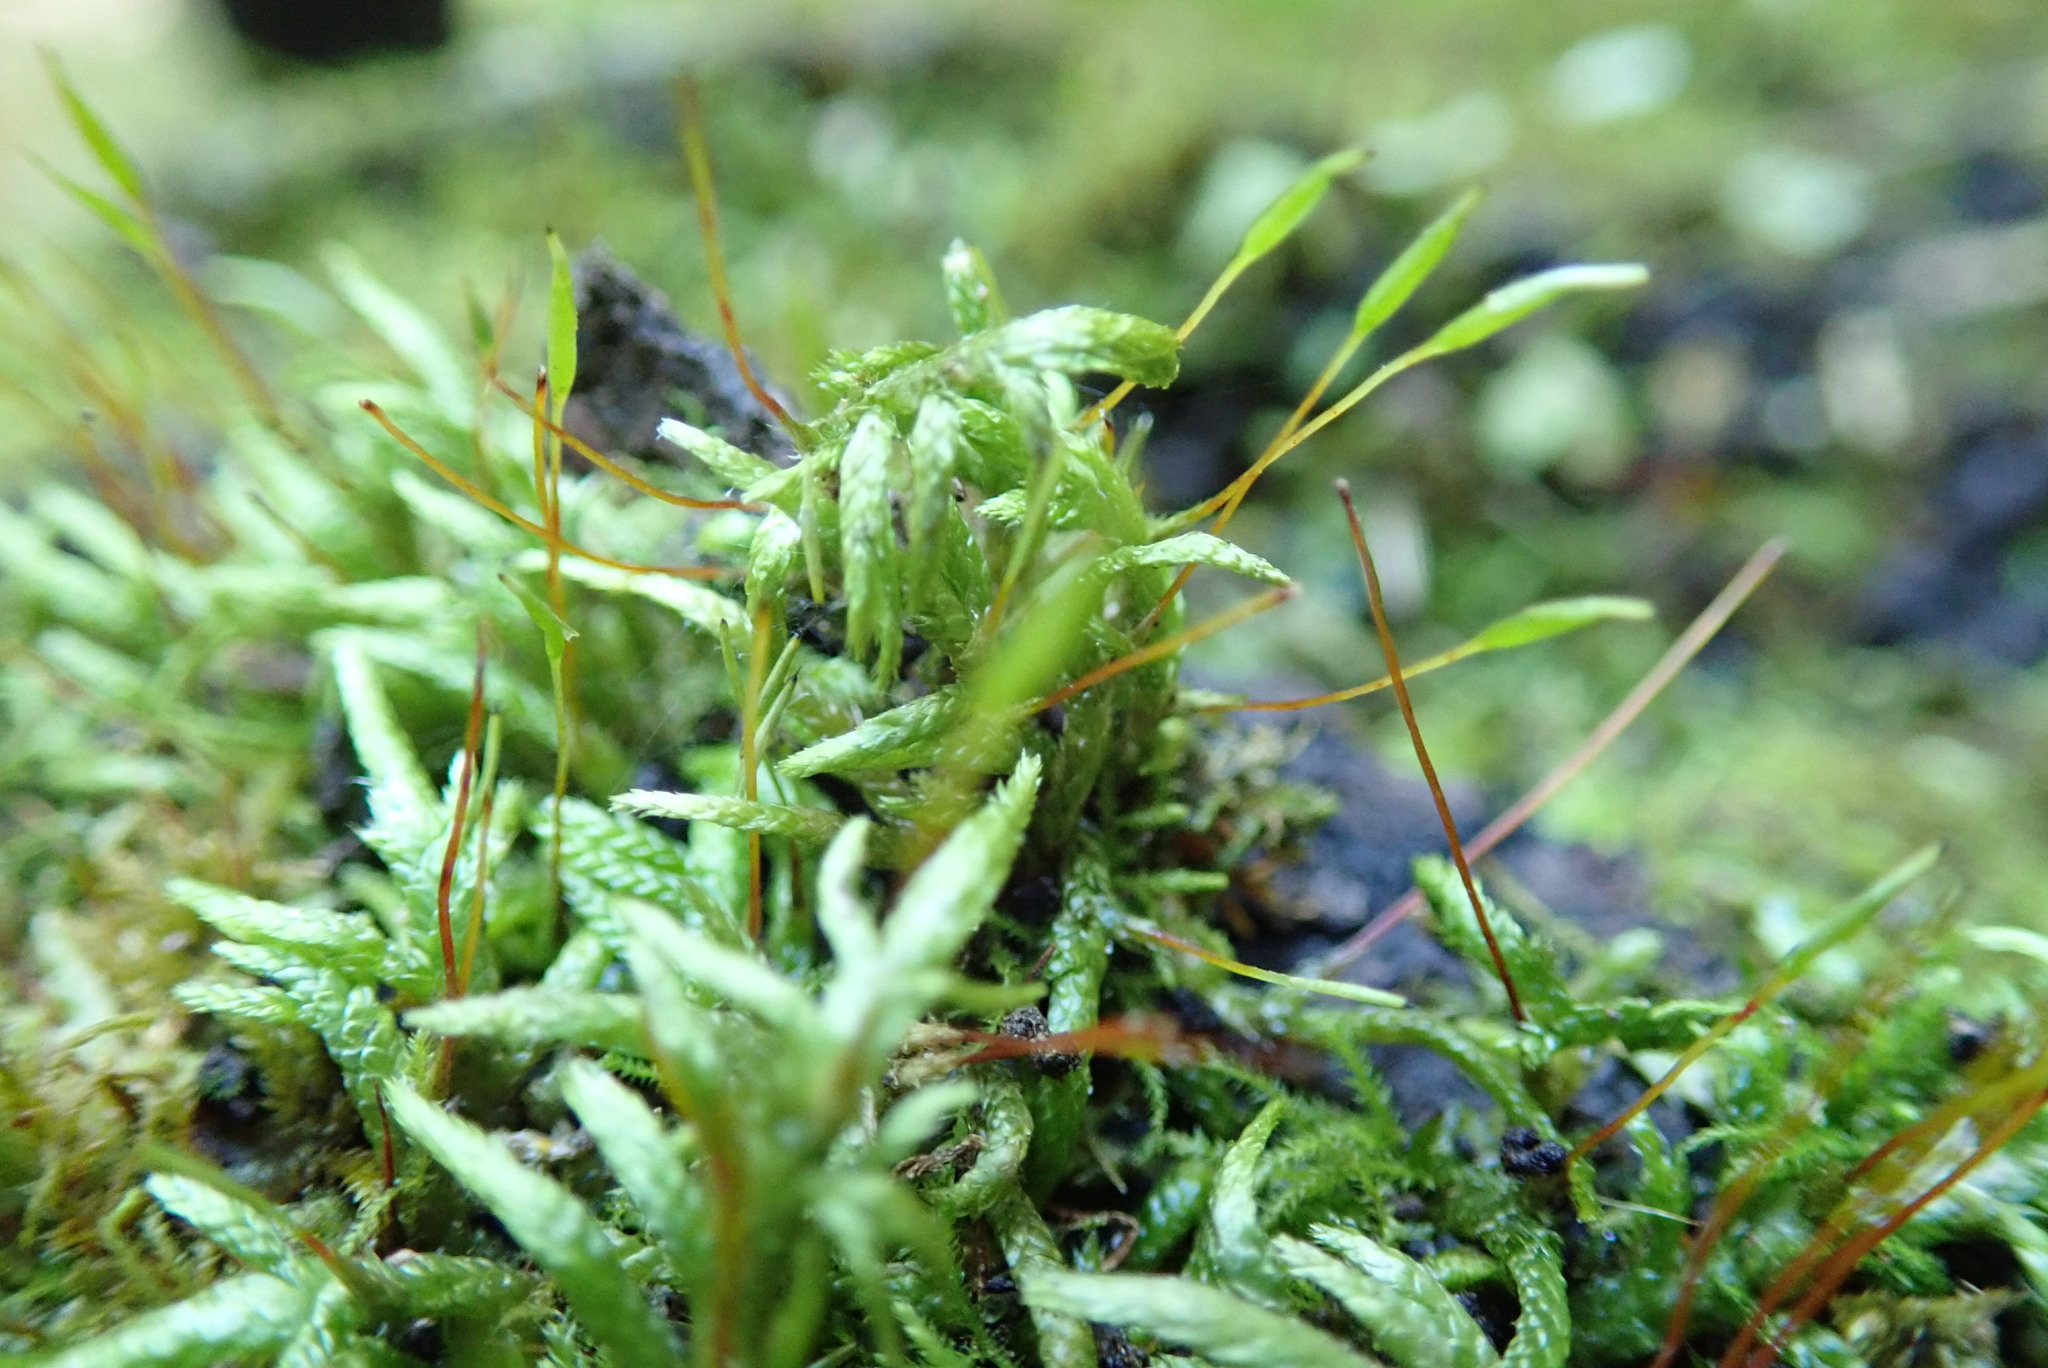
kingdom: Plantae
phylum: Bryophyta
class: Bryopsida
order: Hypnales
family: Entodontaceae
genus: Entodon
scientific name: Entodon seductrix
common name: Round-stemmed entodon moss
